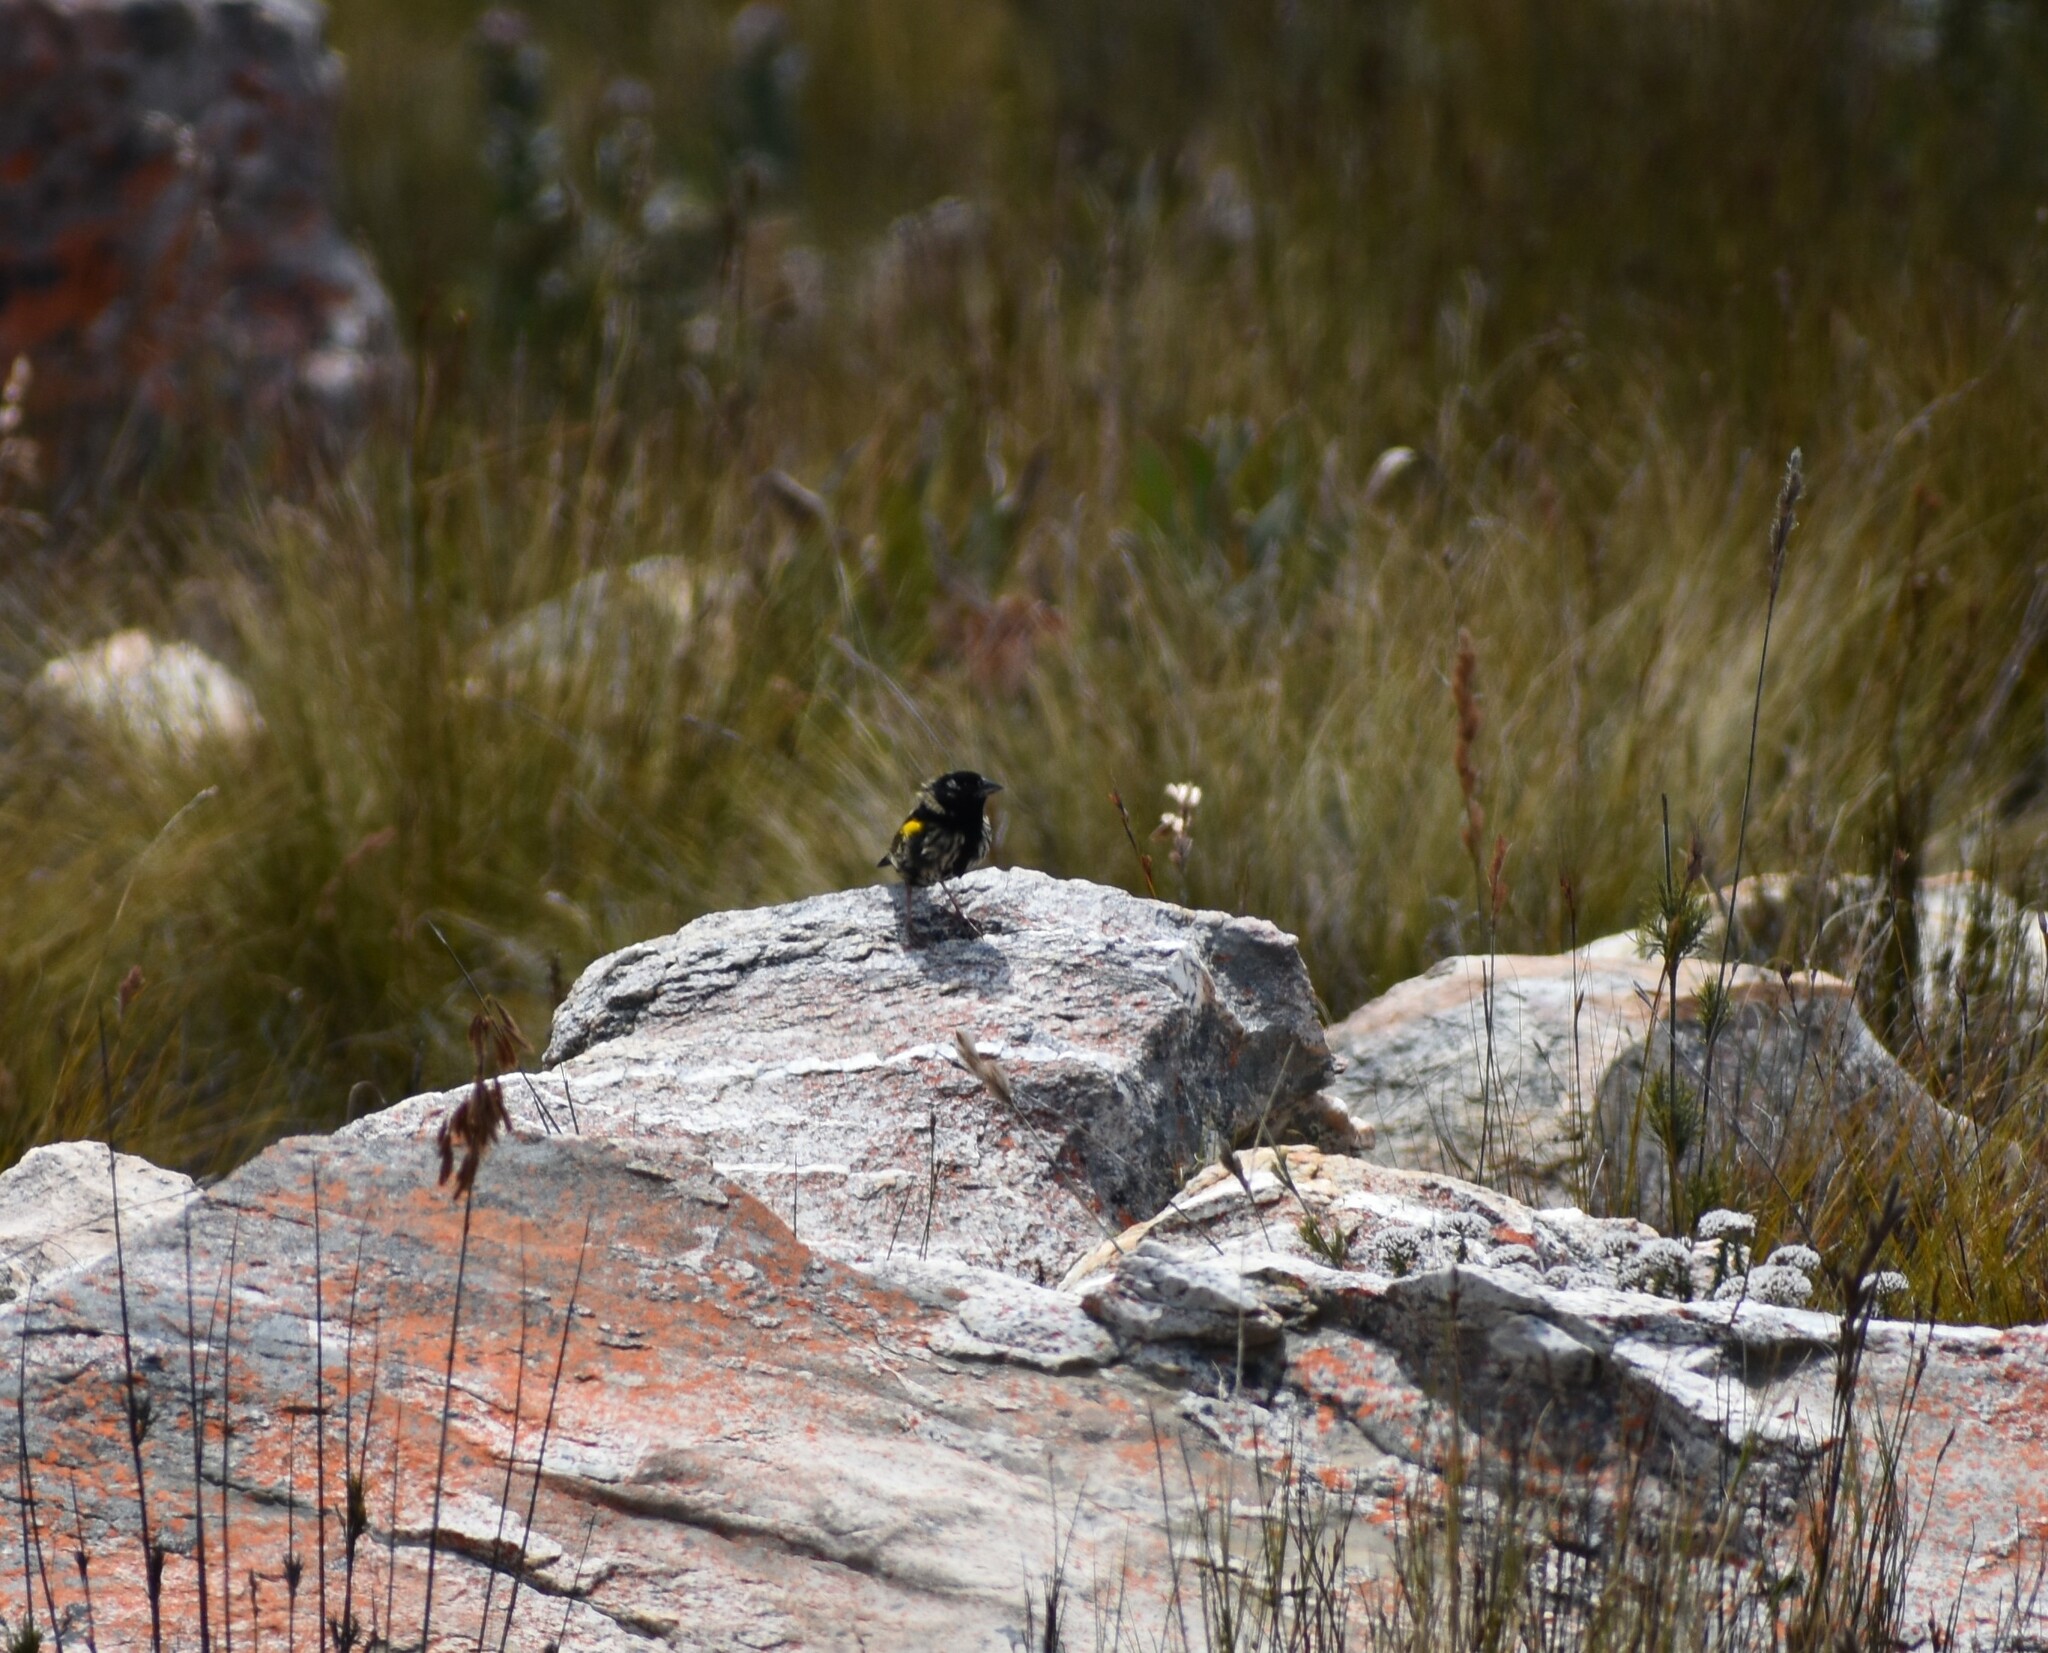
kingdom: Animalia
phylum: Chordata
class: Aves
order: Passeriformes
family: Ploceidae
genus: Euplectes
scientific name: Euplectes capensis
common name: Yellow bishop
